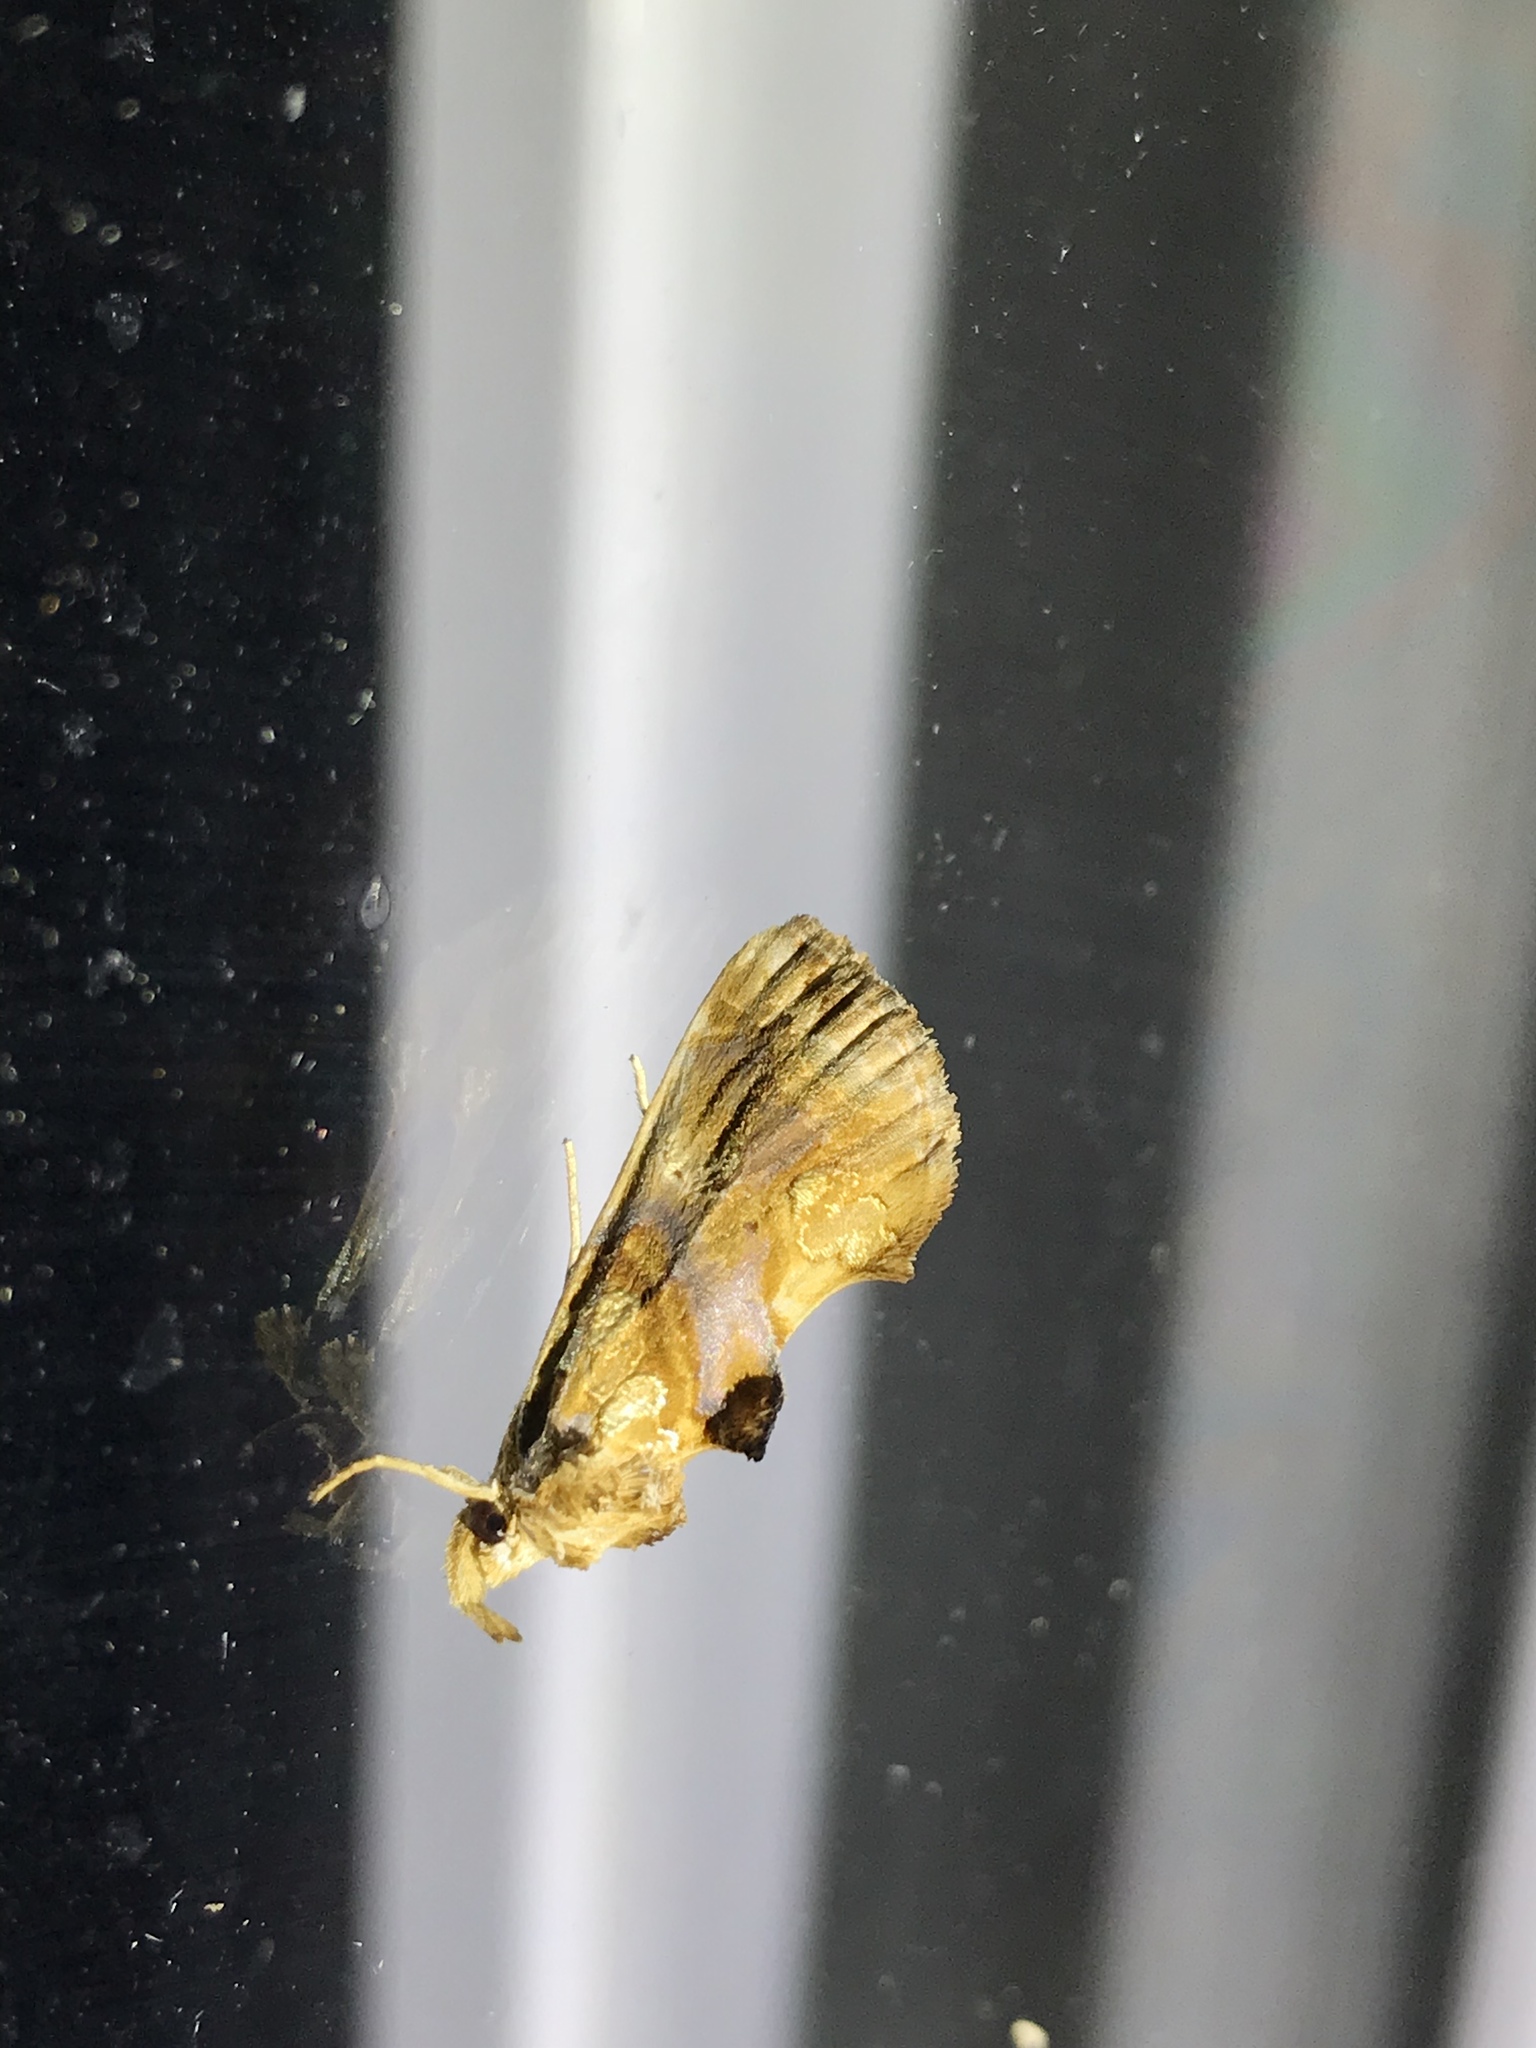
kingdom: Animalia
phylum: Arthropoda
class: Insecta
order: Lepidoptera
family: Erebidae
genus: Plusiodonta
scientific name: Plusiodonta compressipalpis
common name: Moonseed moth
